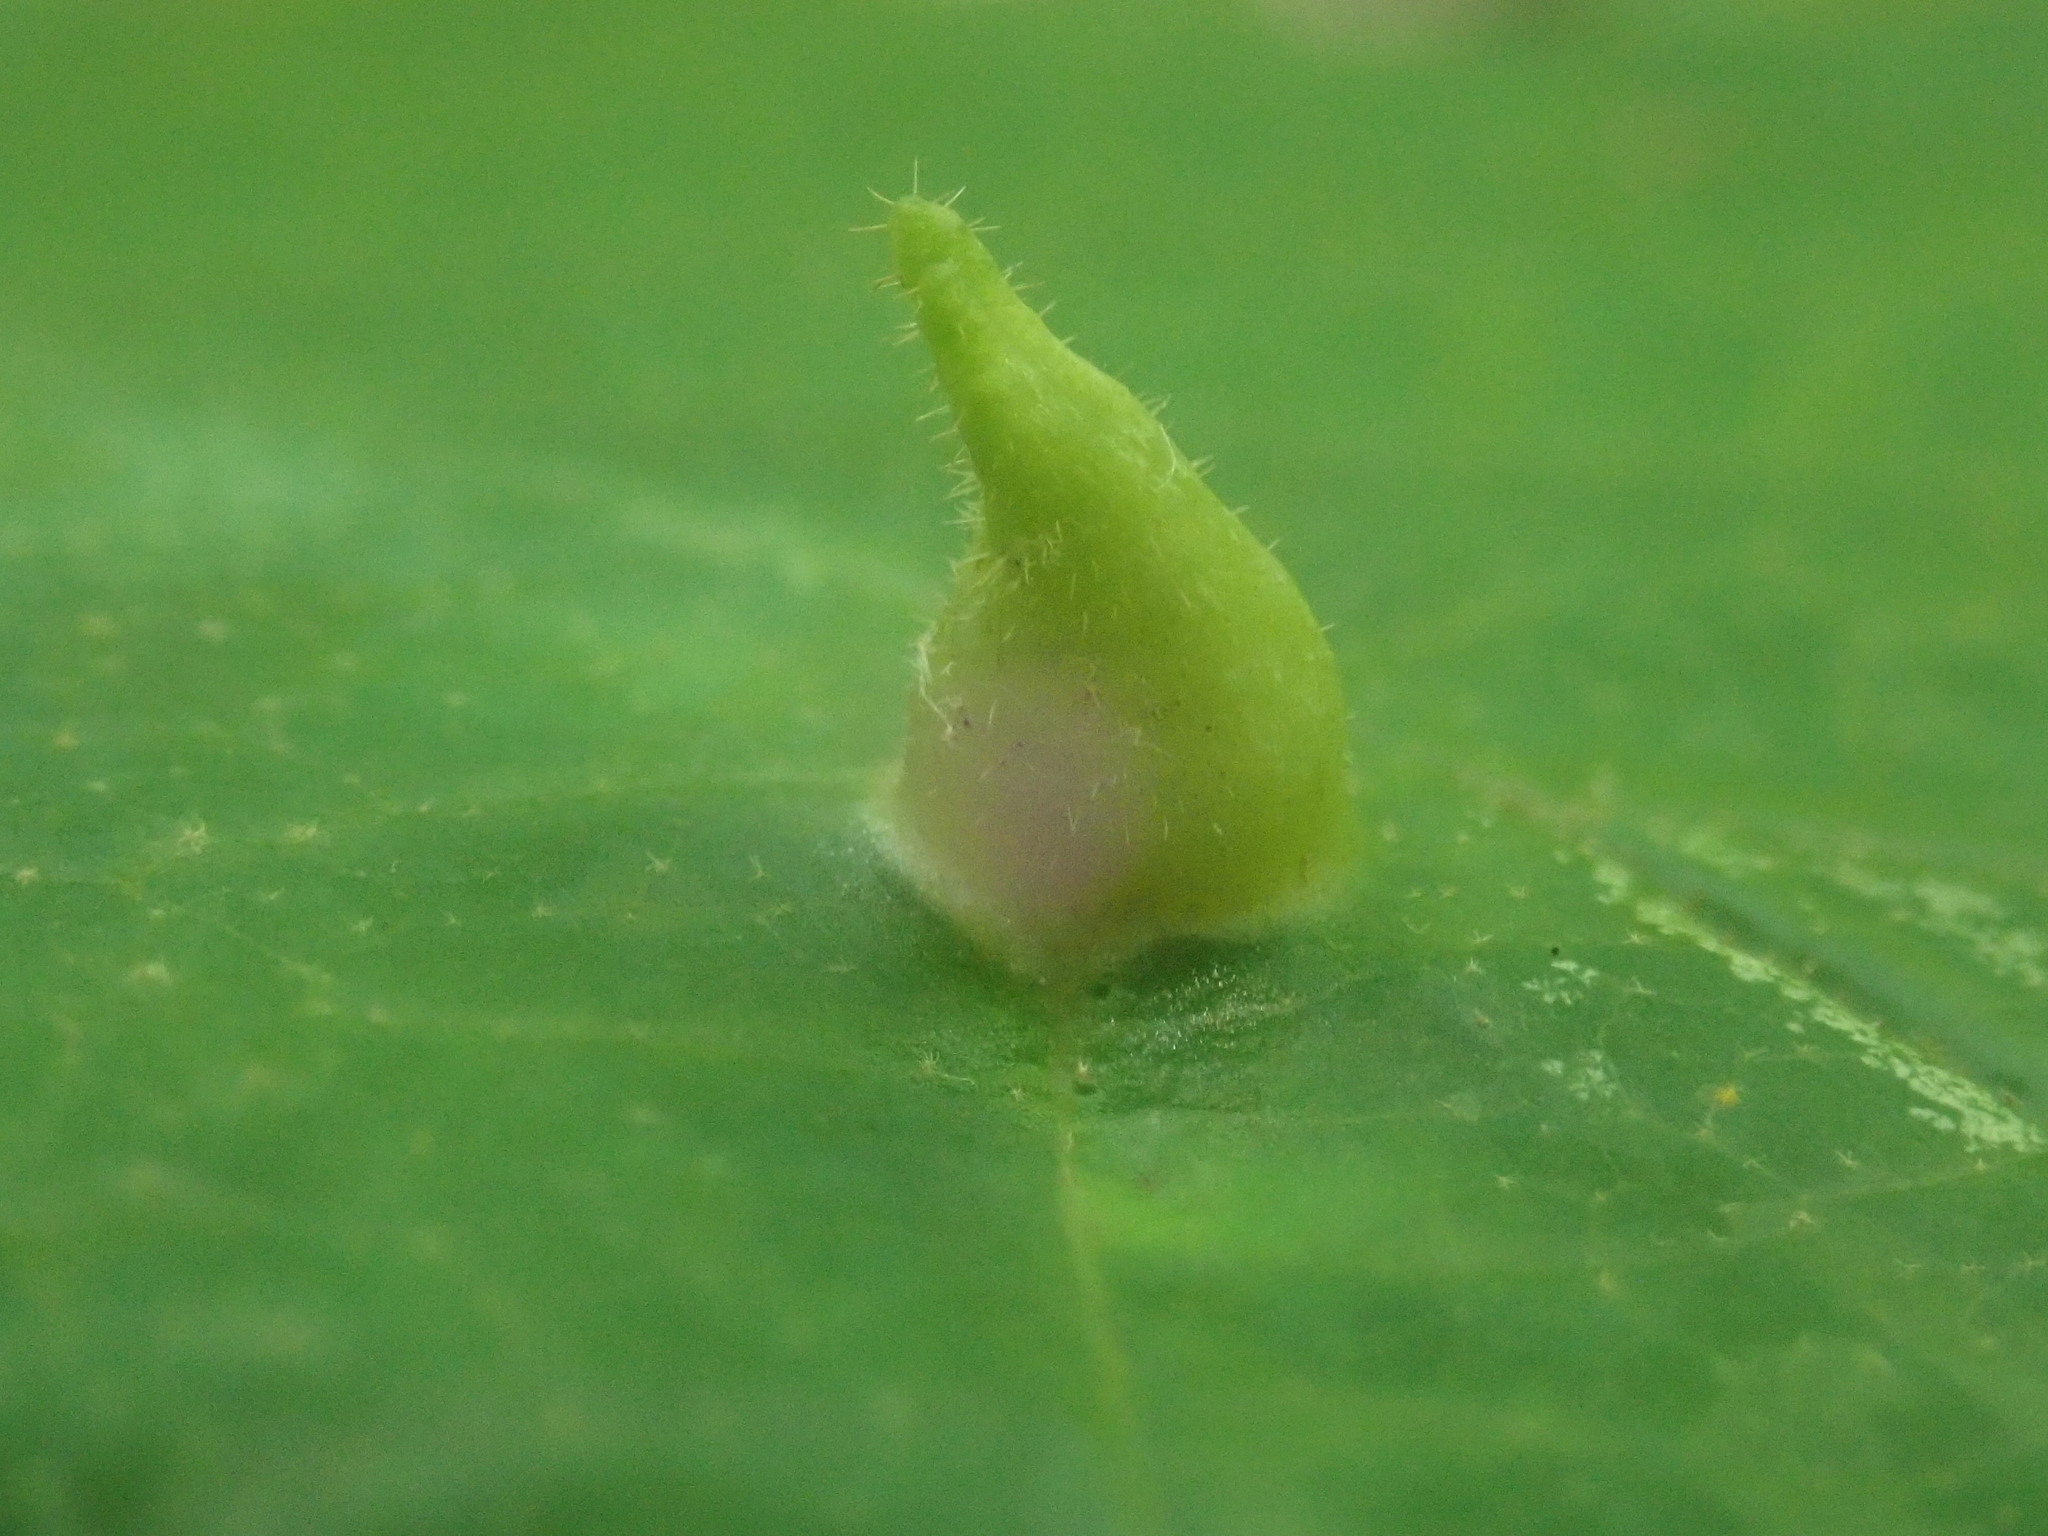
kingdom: Animalia
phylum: Arthropoda
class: Insecta
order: Hemiptera
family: Aphididae
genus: Hormaphis
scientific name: Hormaphis hamamelidis
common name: Witch-hazel cone gall aphid
